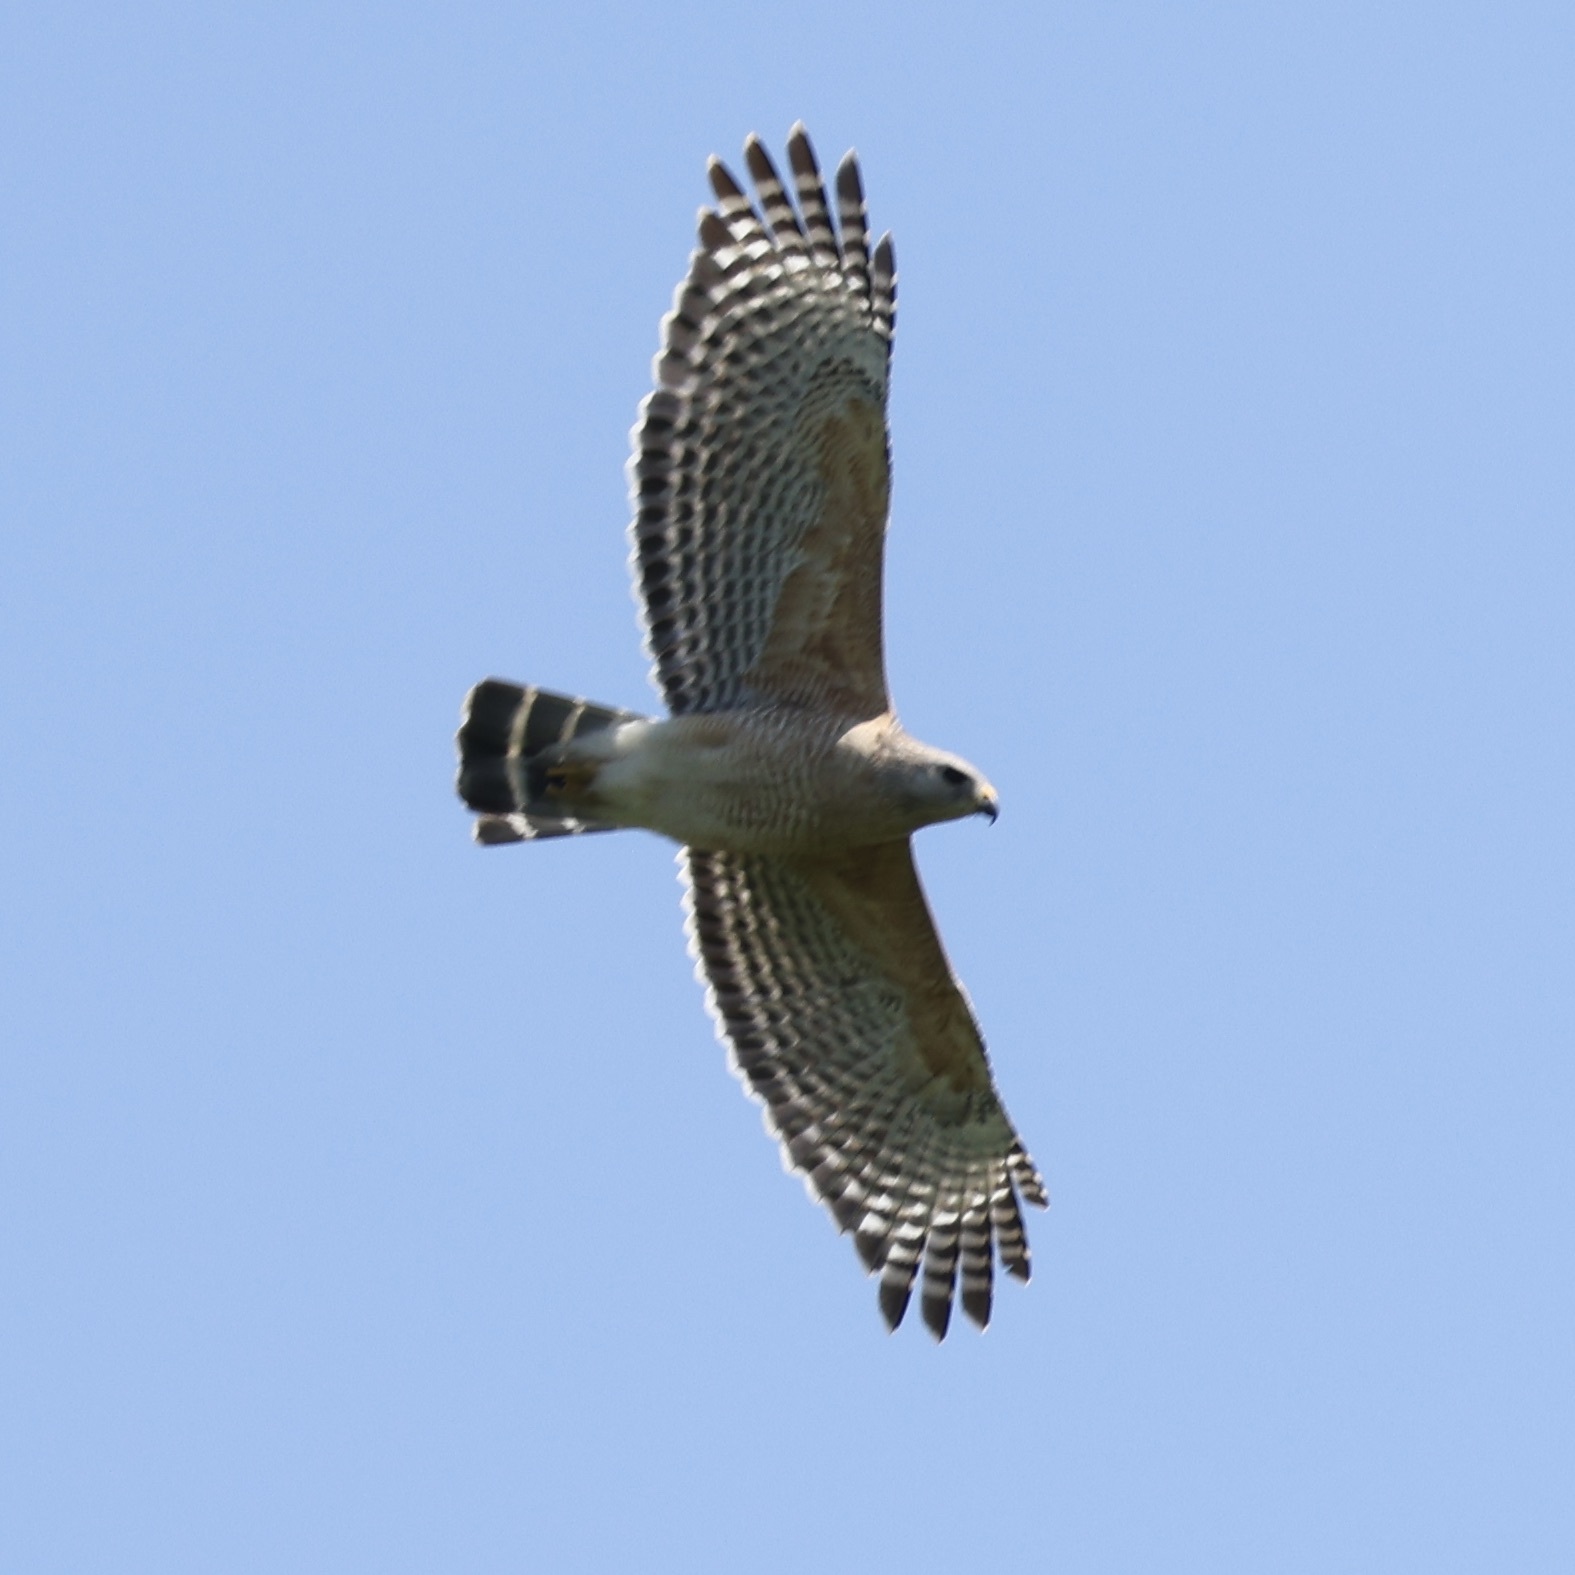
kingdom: Animalia
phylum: Chordata
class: Aves
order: Accipitriformes
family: Accipitridae
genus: Buteo
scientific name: Buteo lineatus
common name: Red-shouldered hawk
